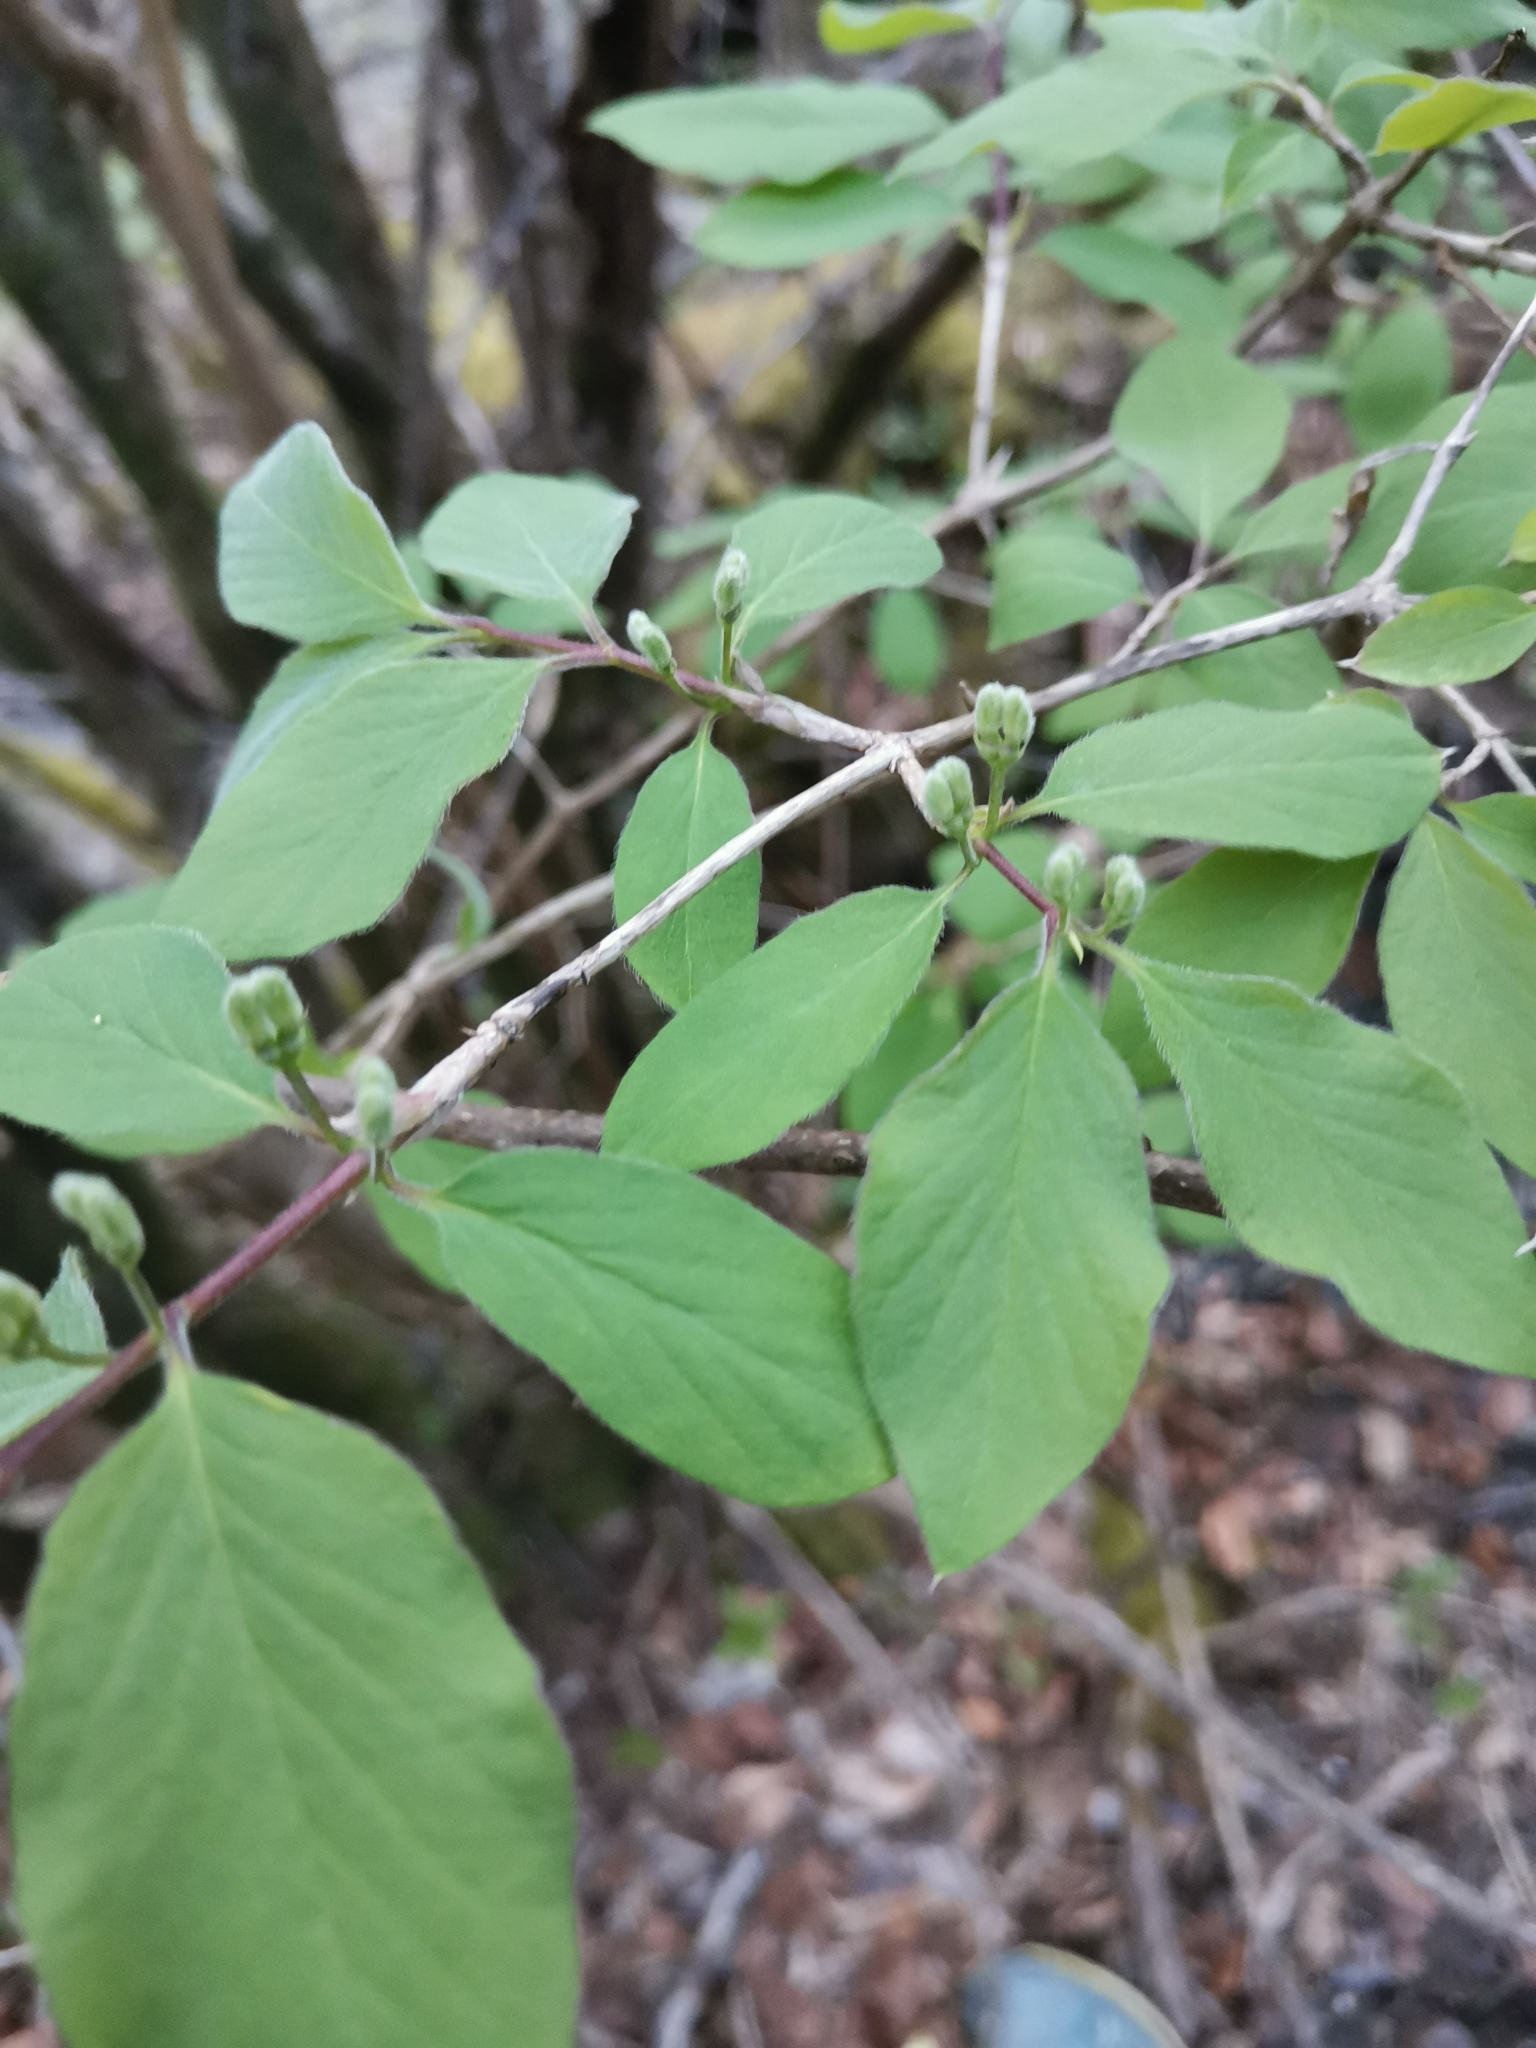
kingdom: Plantae
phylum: Tracheophyta
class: Magnoliopsida
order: Dipsacales
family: Caprifoliaceae
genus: Lonicera
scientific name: Lonicera xylosteum
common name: Fly honeysuckle
